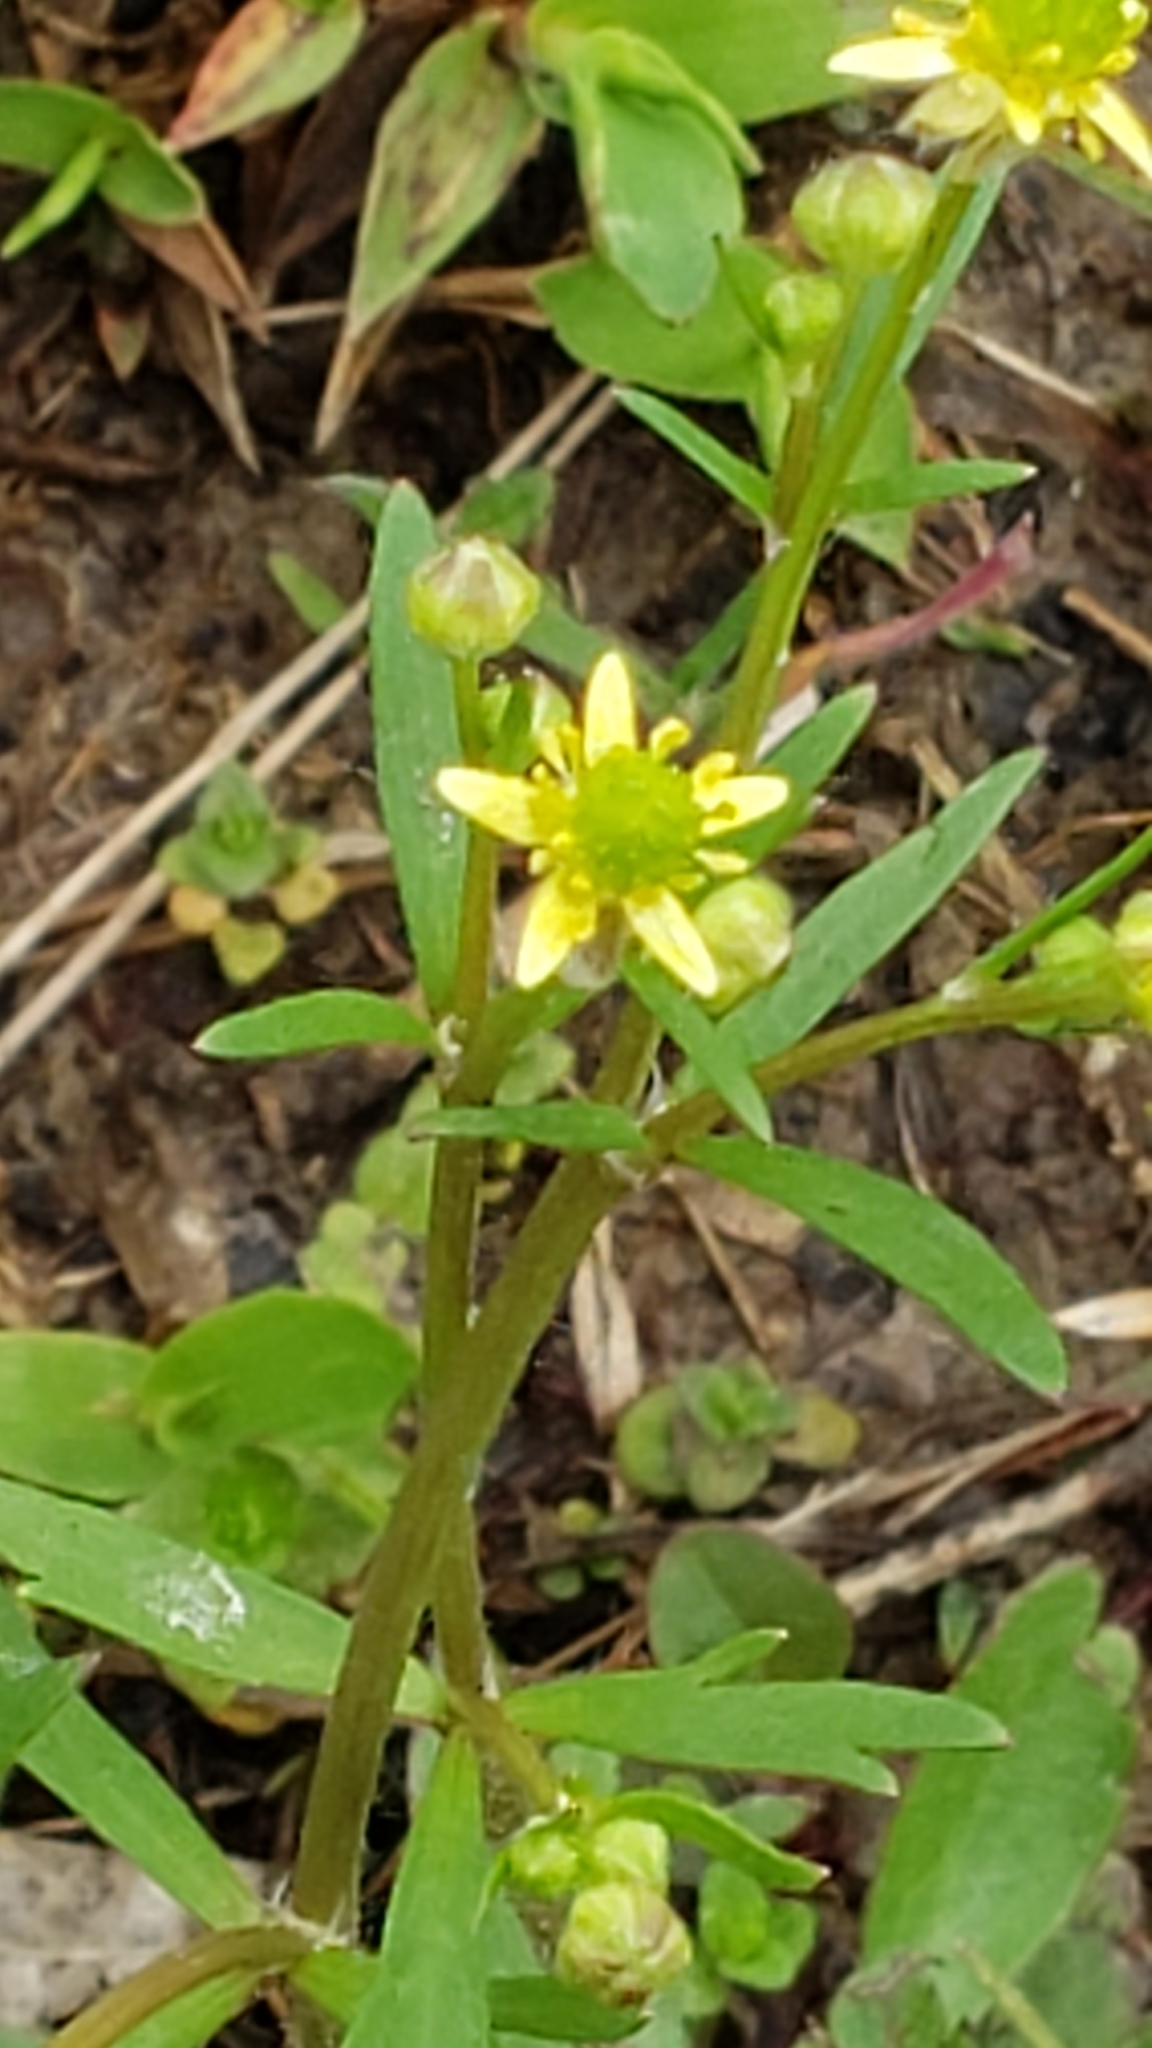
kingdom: Plantae
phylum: Tracheophyta
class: Magnoliopsida
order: Ranunculales
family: Ranunculaceae
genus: Ranunculus
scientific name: Ranunculus micranthus
